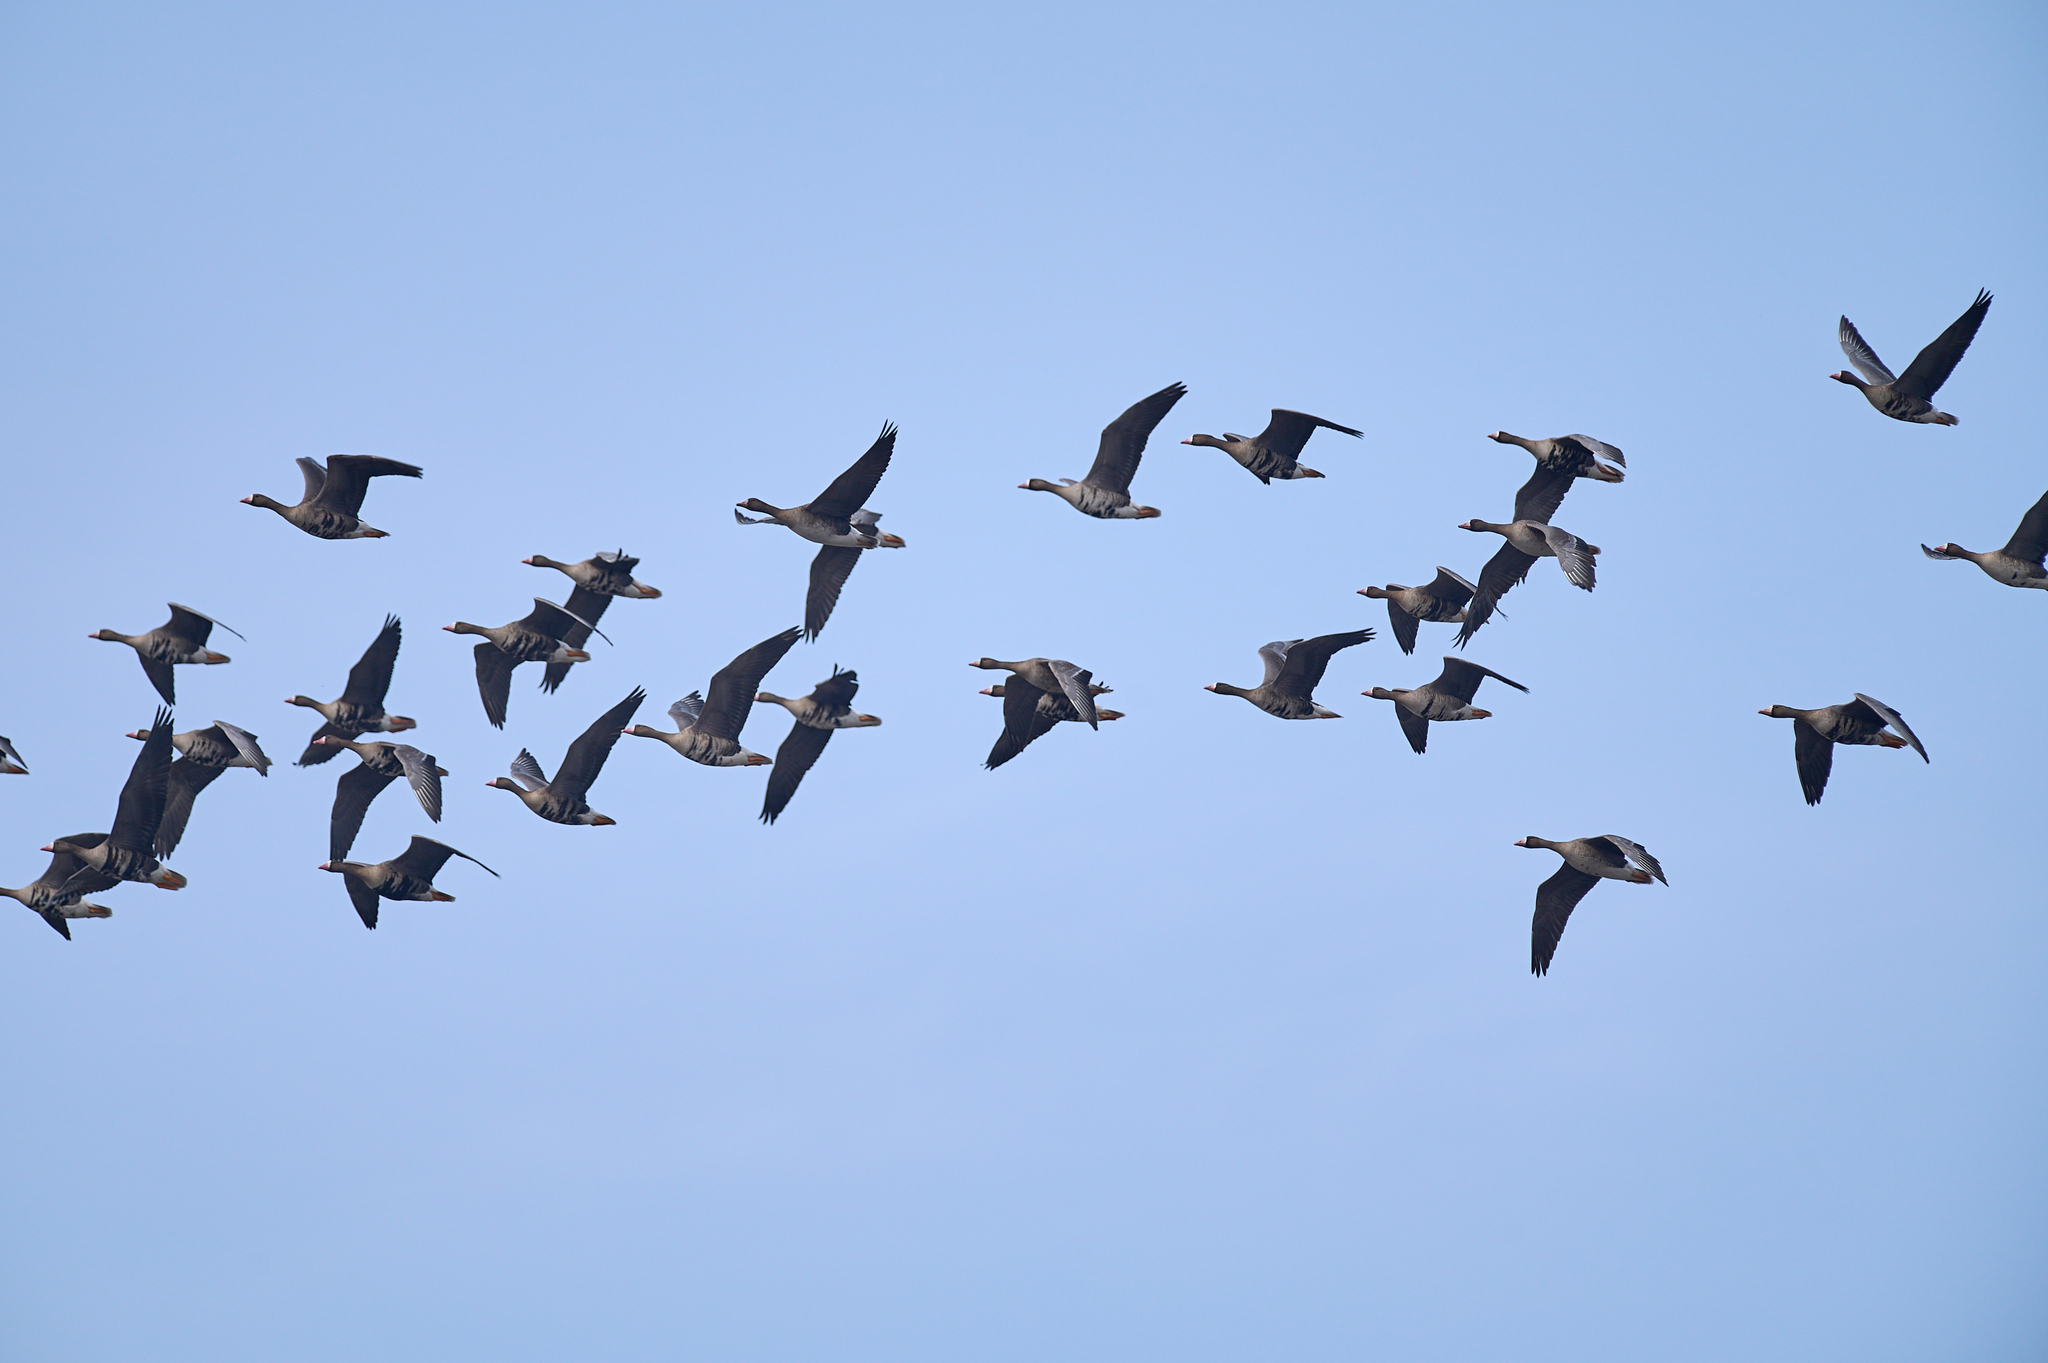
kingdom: Animalia
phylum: Chordata
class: Aves
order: Anseriformes
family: Anatidae
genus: Anser
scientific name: Anser albifrons
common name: Greater white-fronted goose
